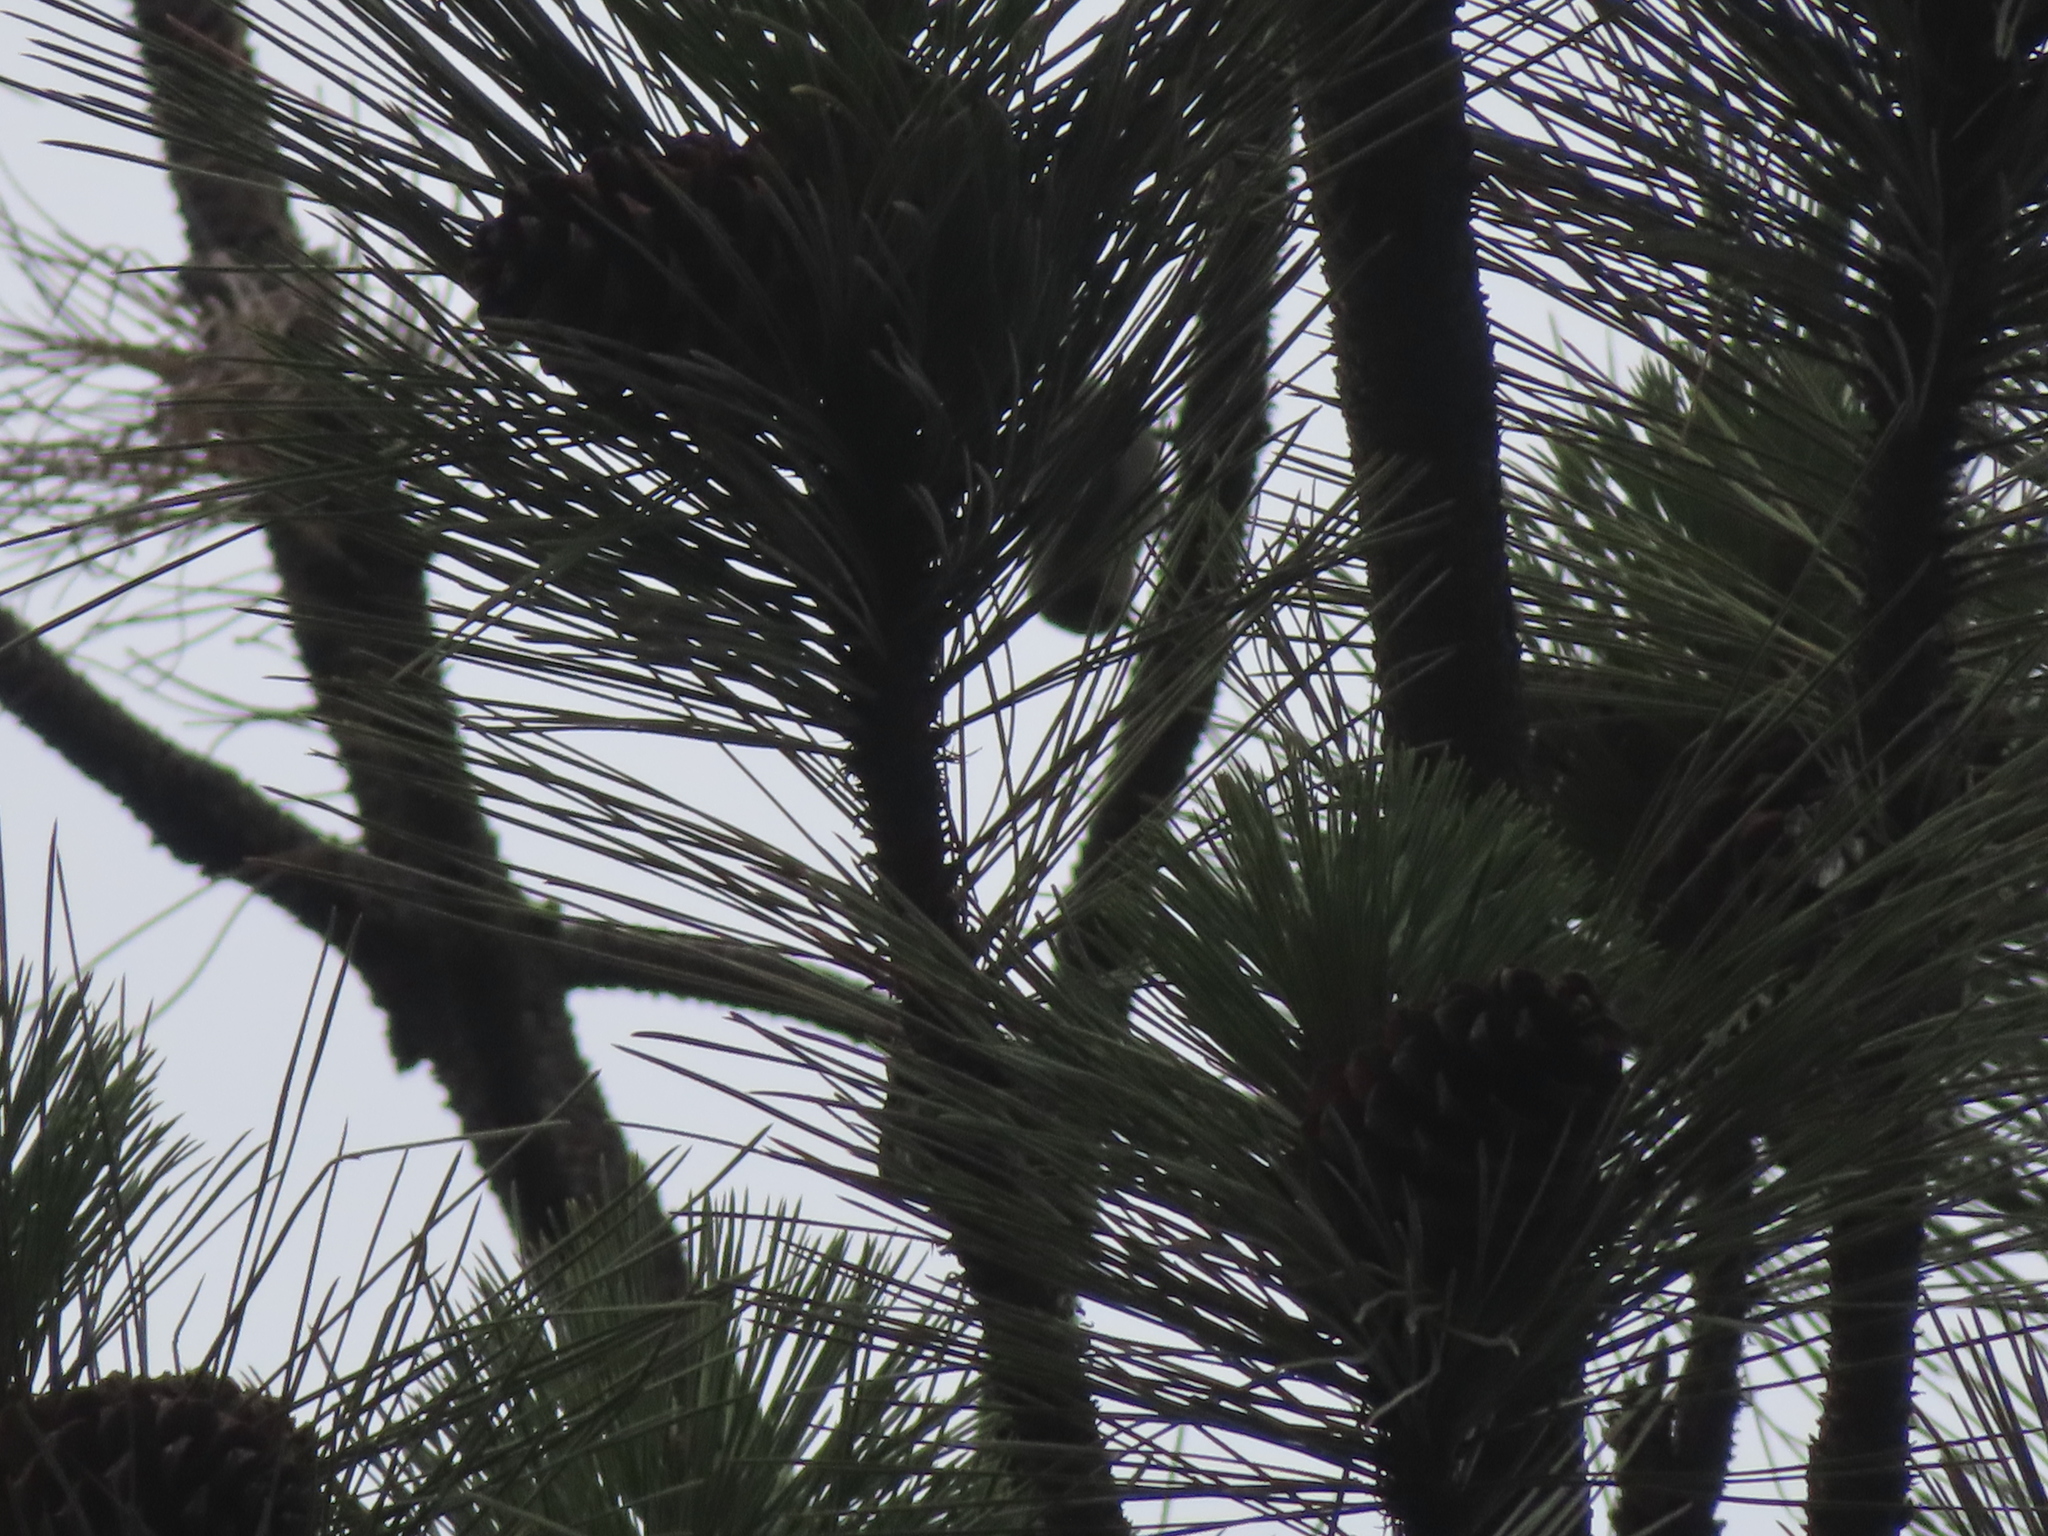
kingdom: Plantae
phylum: Tracheophyta
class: Pinopsida
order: Pinales
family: Pinaceae
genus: Pinus
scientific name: Pinus ponderosa
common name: Western yellow-pine
